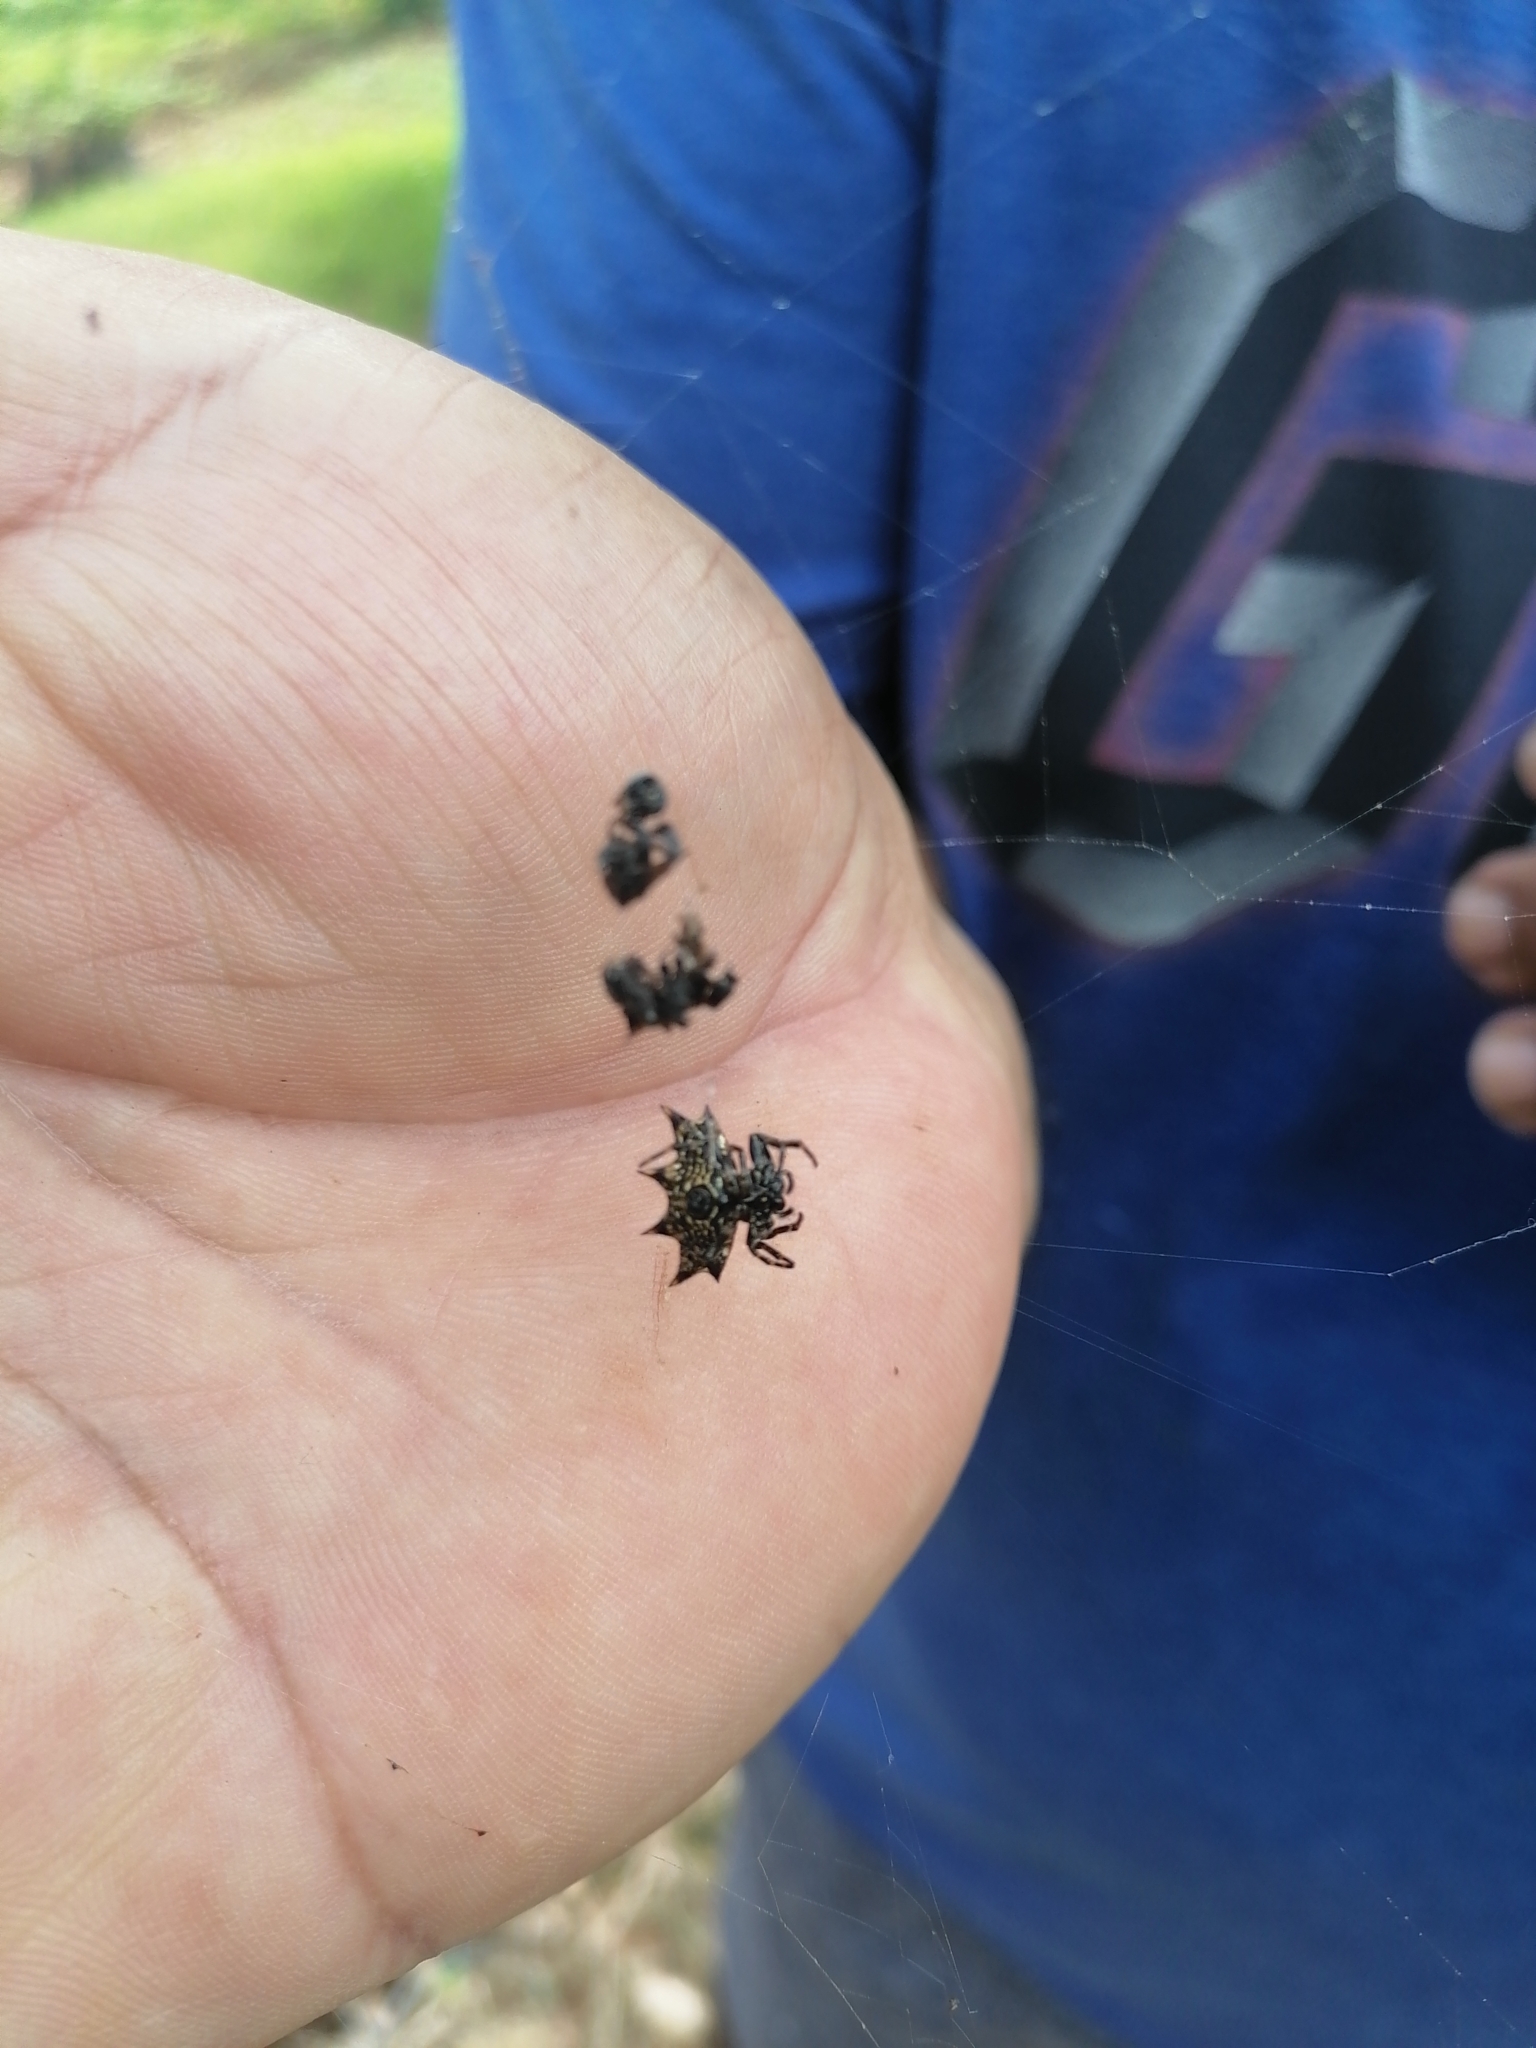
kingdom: Animalia
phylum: Arthropoda
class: Arachnida
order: Araneae
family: Araneidae
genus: Gasteracantha
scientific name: Gasteracantha cancriformis
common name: Orb weavers
